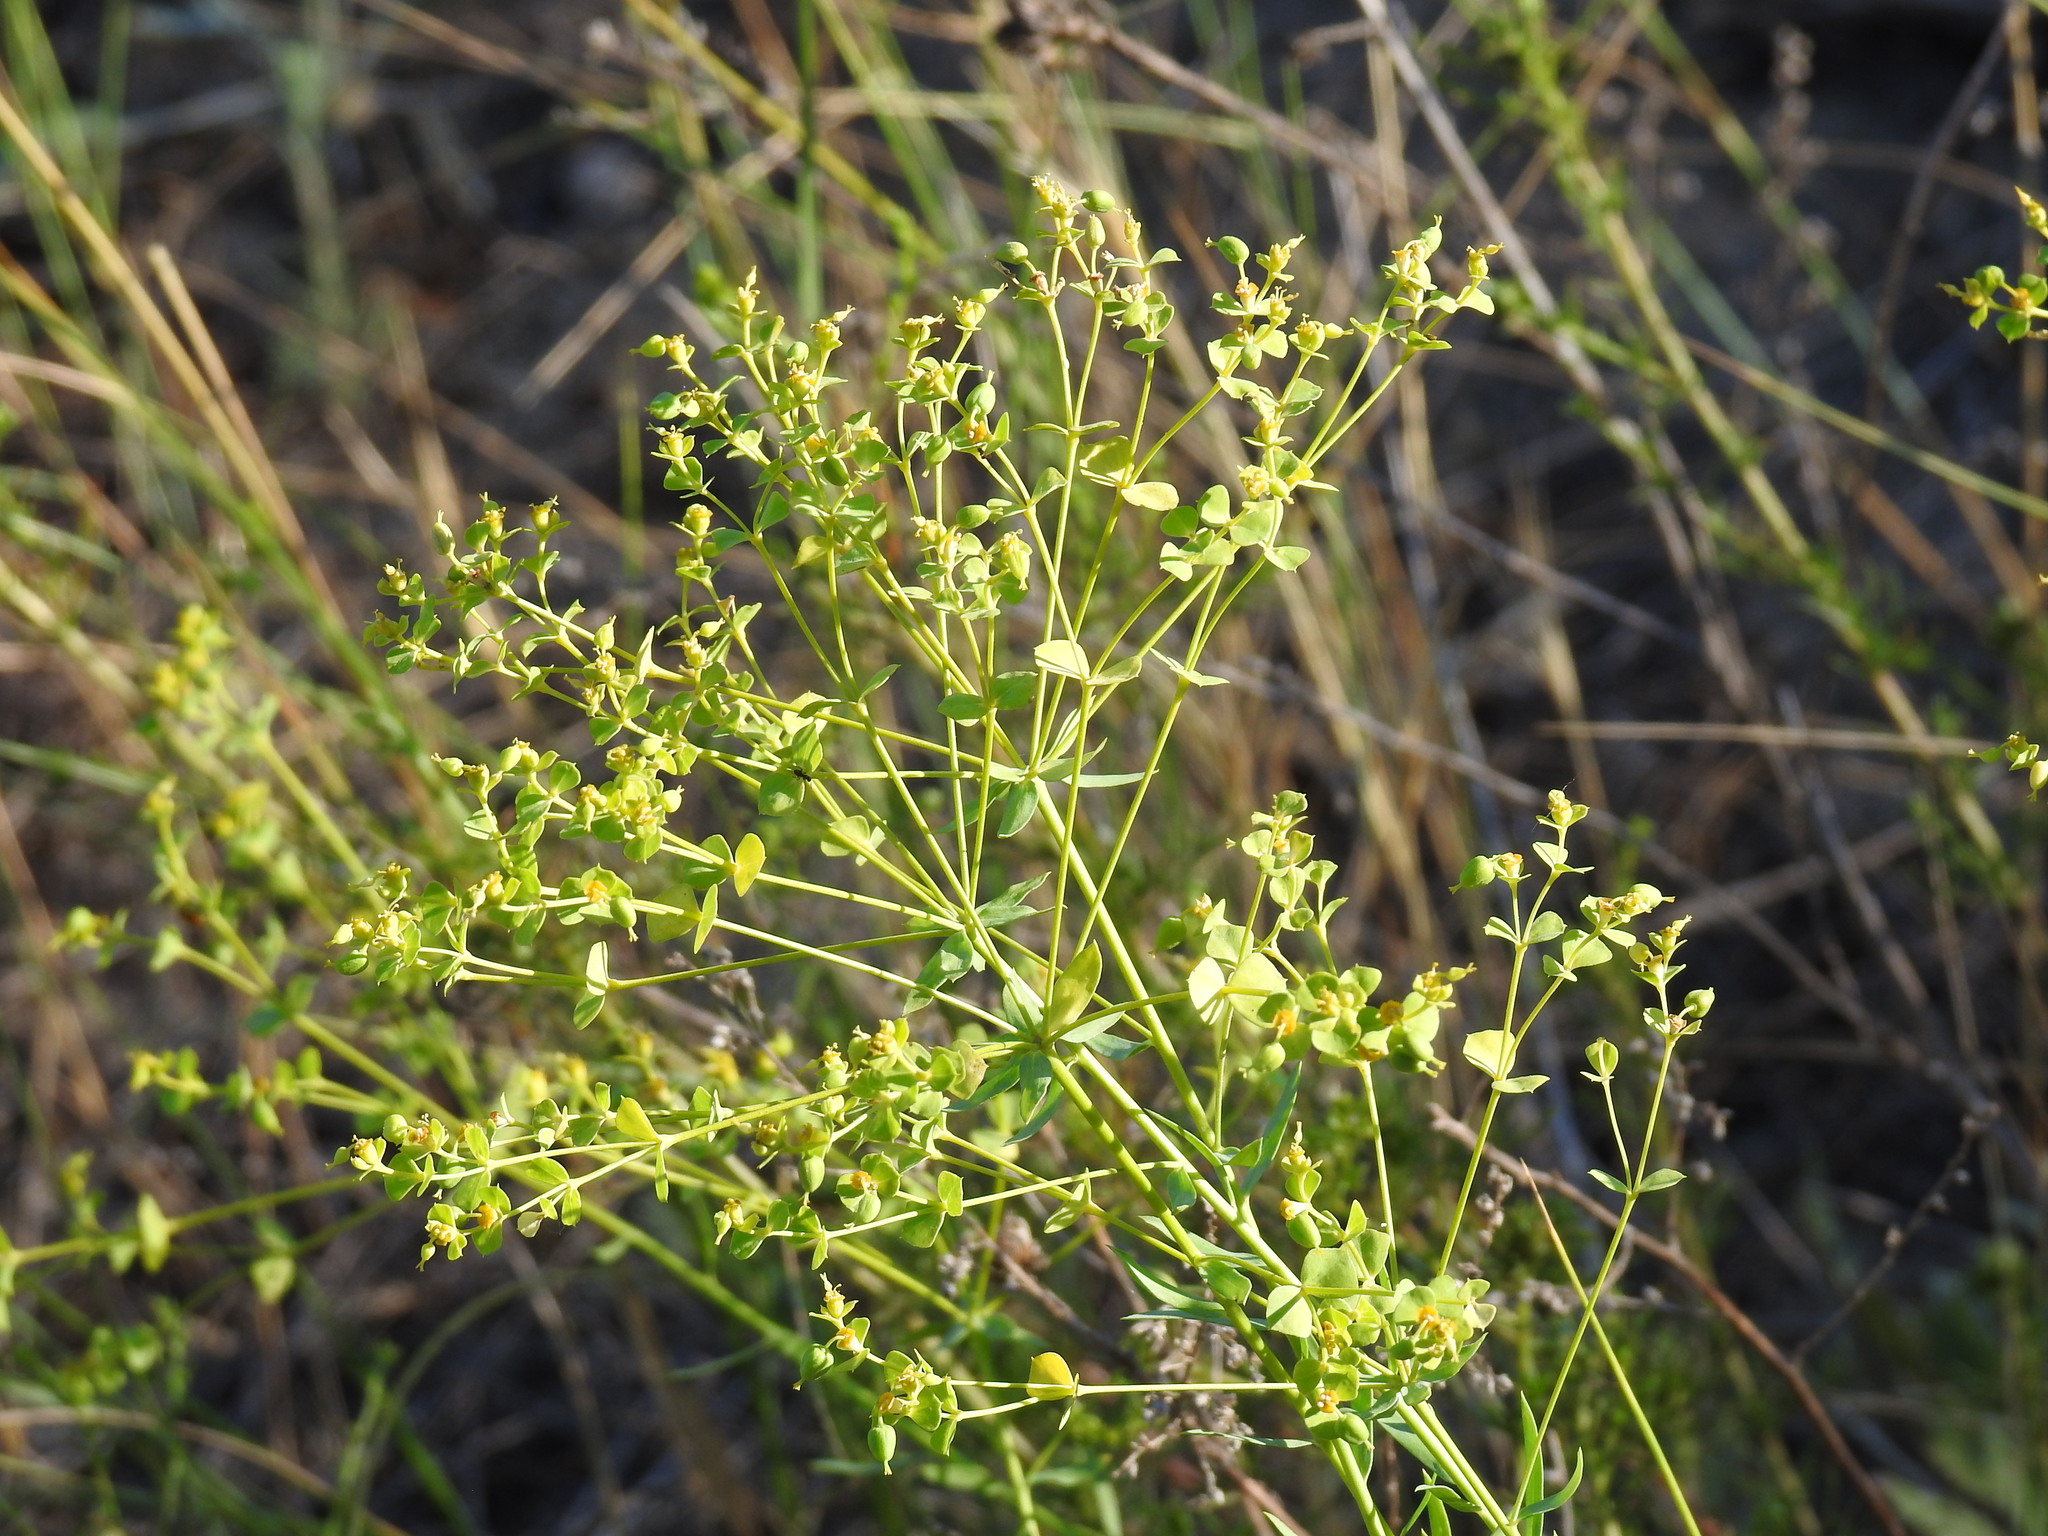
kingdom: Plantae
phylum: Tracheophyta
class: Magnoliopsida
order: Malpighiales
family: Euphorbiaceae
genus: Euphorbia
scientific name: Euphorbia seguieriana
